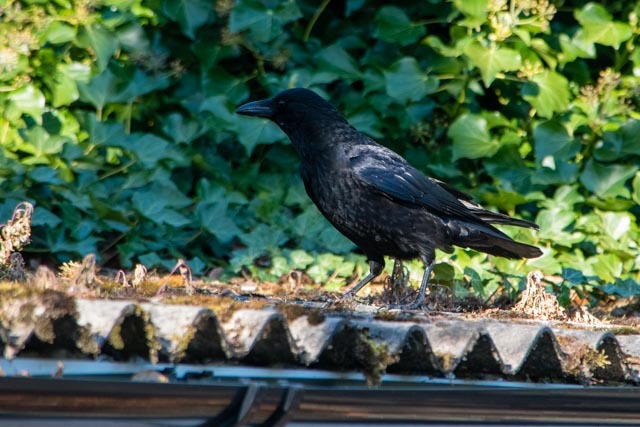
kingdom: Animalia
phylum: Chordata
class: Aves
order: Passeriformes
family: Corvidae
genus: Corvus
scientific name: Corvus corone
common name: Carrion crow
